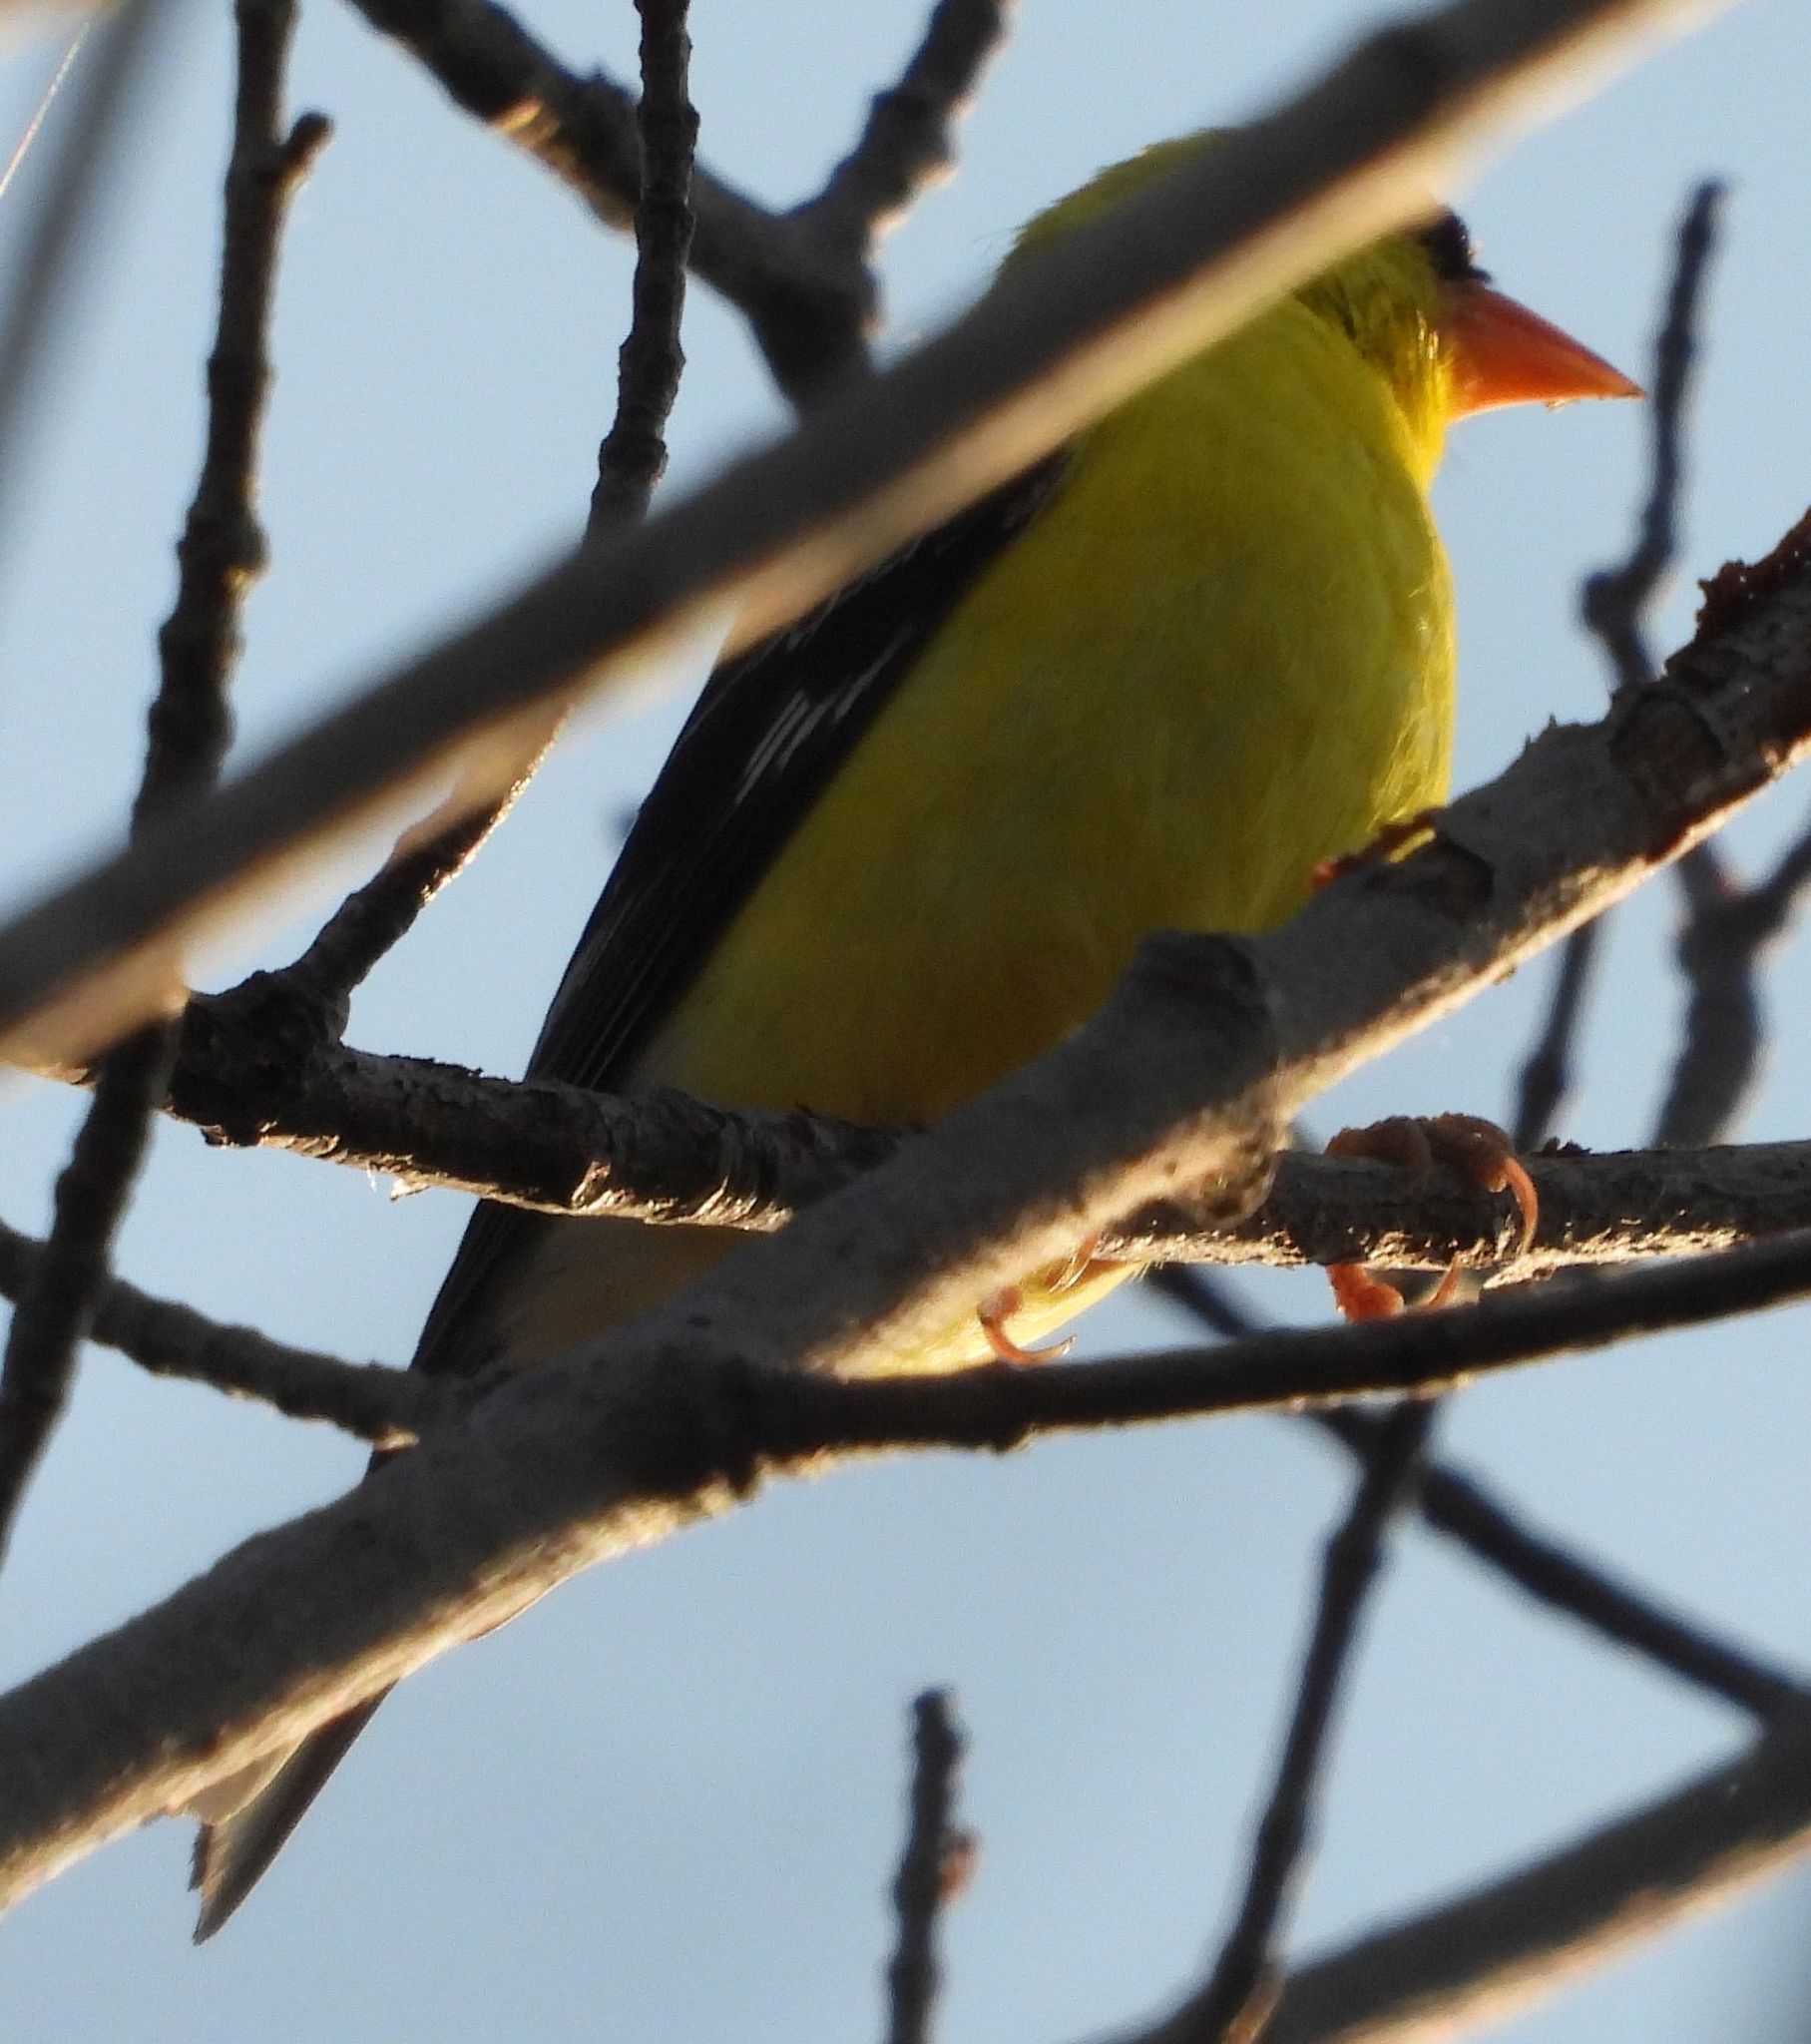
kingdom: Animalia
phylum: Chordata
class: Aves
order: Passeriformes
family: Fringillidae
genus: Spinus
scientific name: Spinus tristis
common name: American goldfinch
